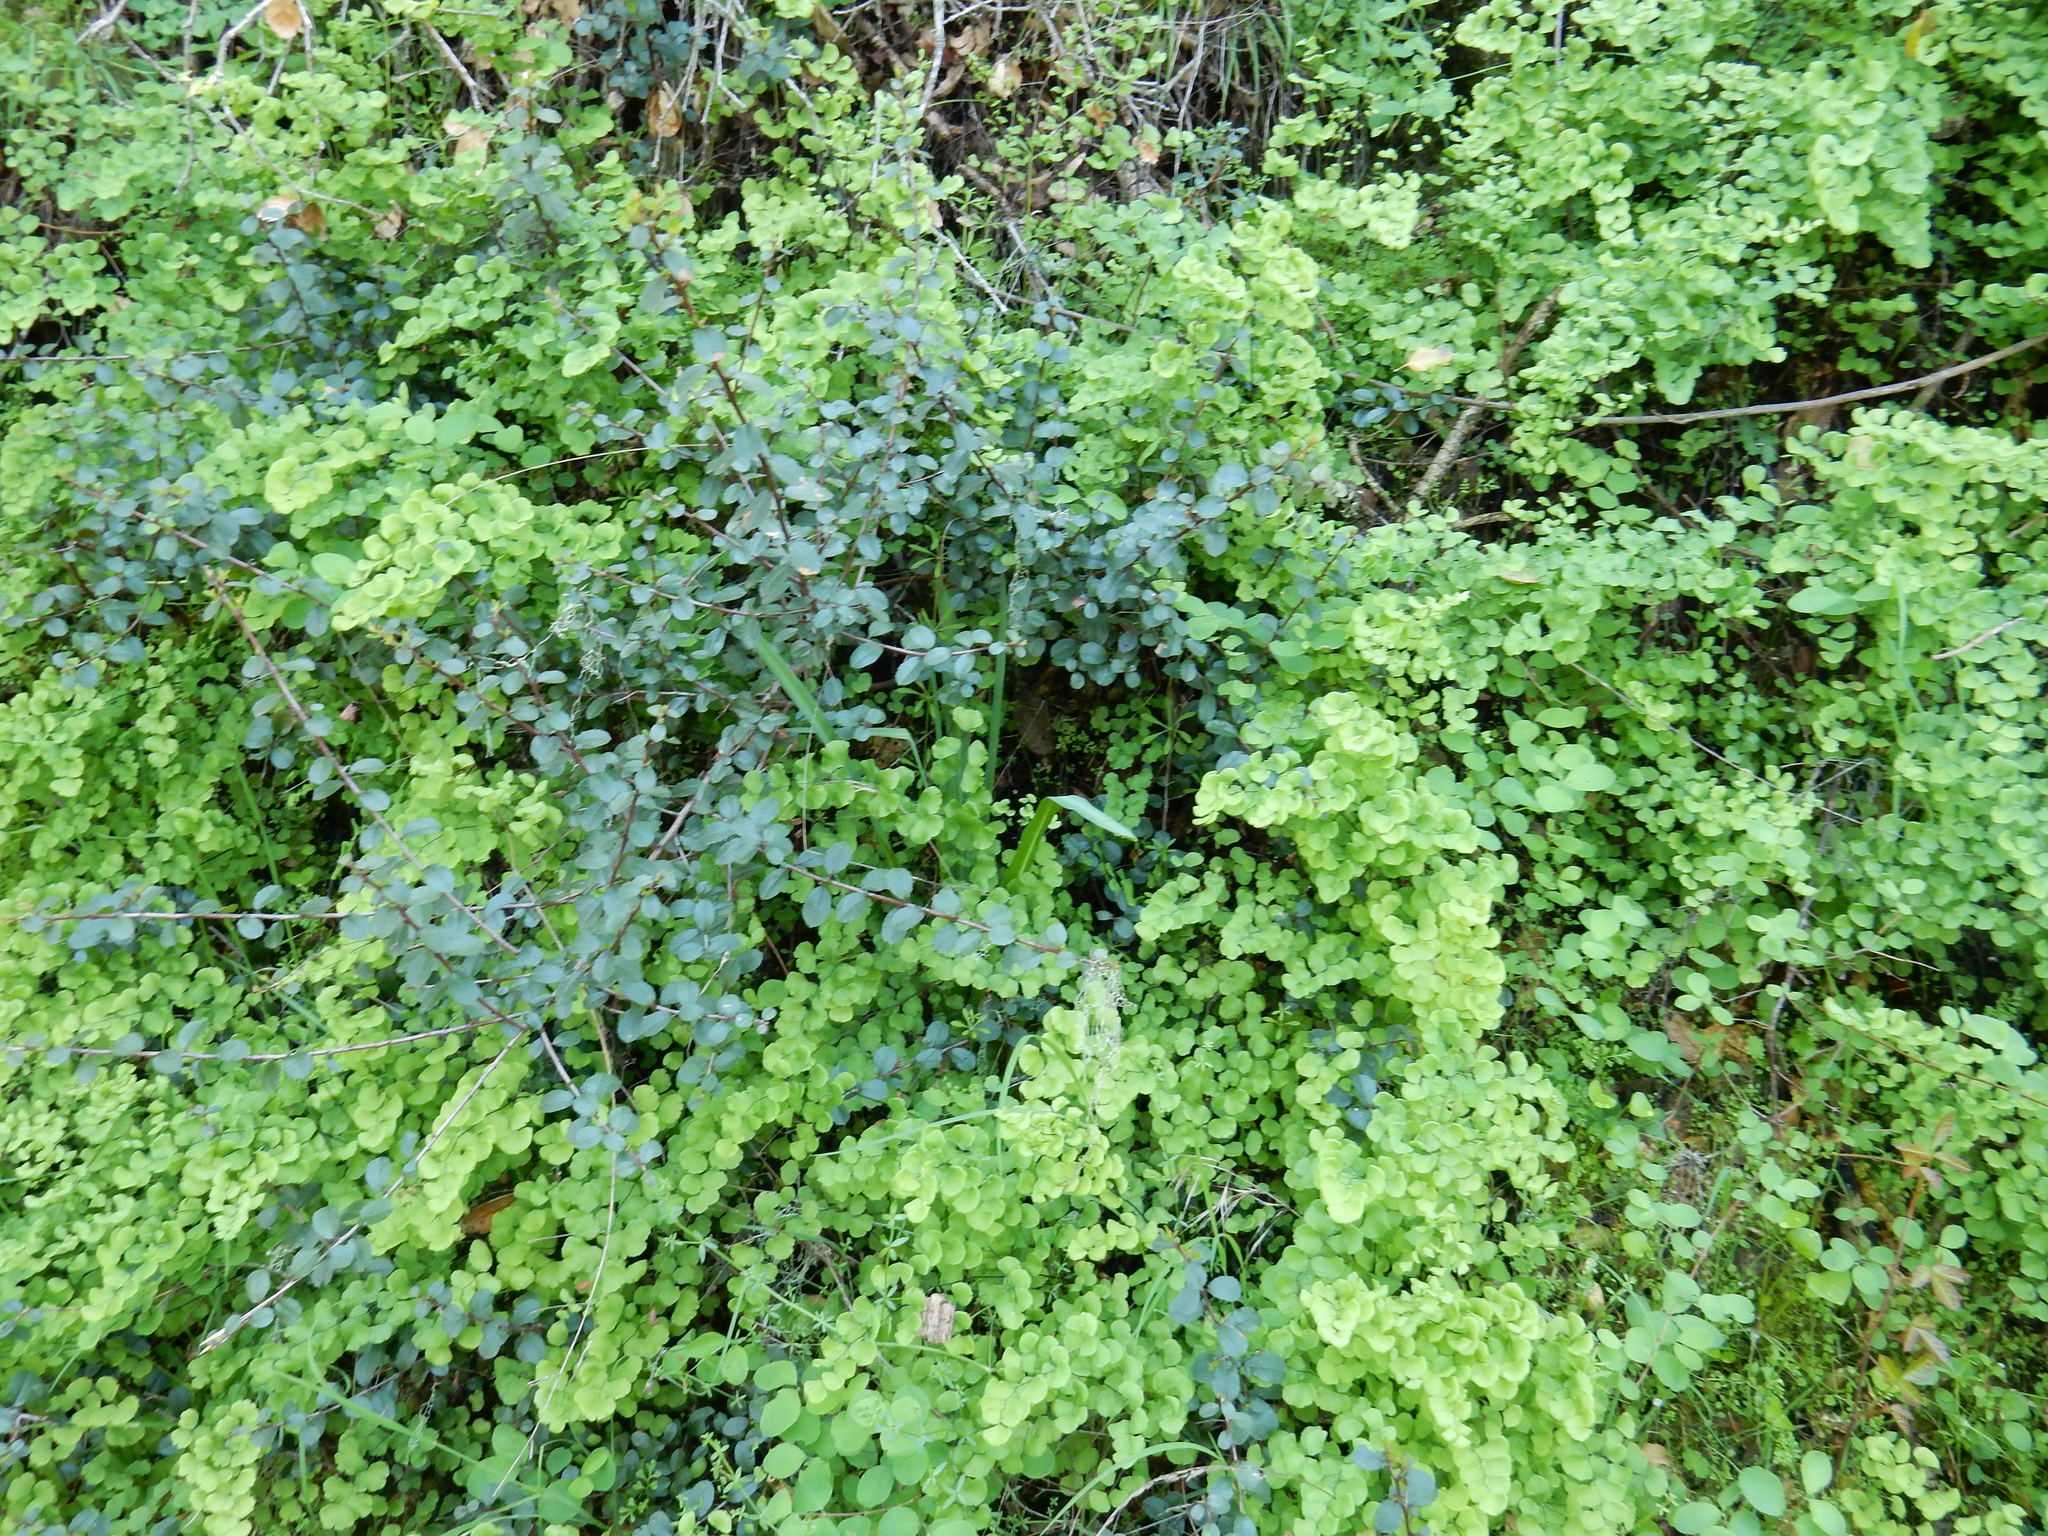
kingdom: Plantae
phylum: Tracheophyta
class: Polypodiopsida
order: Polypodiales
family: Pteridaceae
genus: Adiantum
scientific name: Adiantum jordanii
